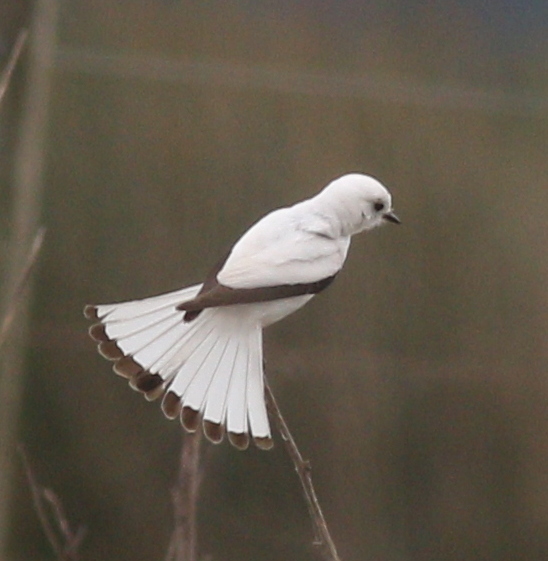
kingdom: Animalia
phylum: Chordata
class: Aves
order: Passeriformes
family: Tyrannidae
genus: Xolmis
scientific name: Xolmis irupero
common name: White monjita
